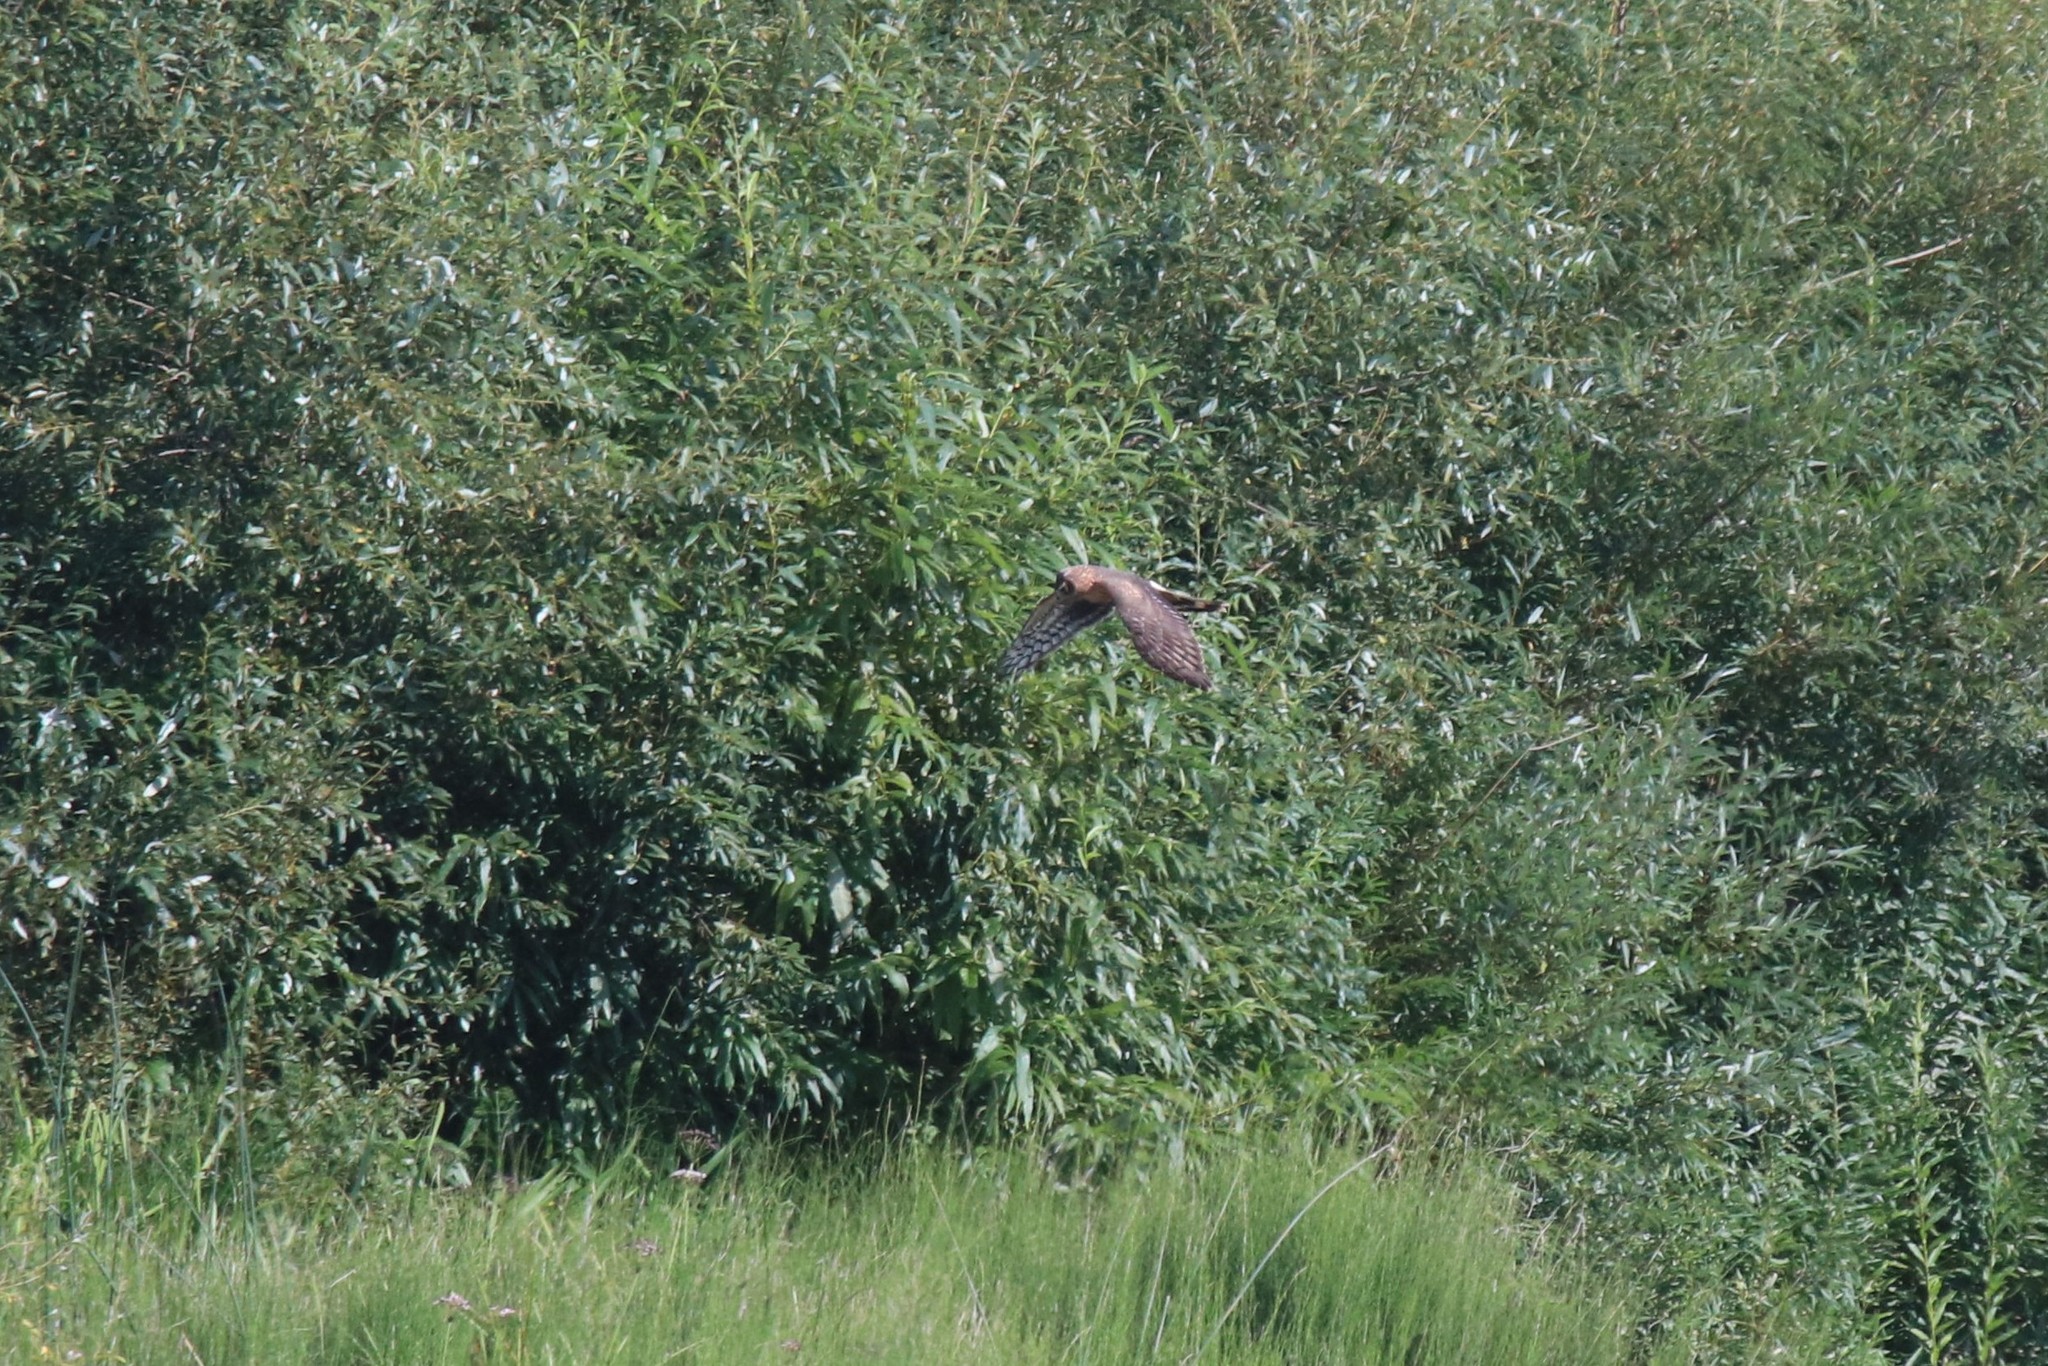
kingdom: Animalia
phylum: Chordata
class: Aves
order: Accipitriformes
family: Accipitridae
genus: Circus
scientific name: Circus cyaneus
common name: Hen harrier
